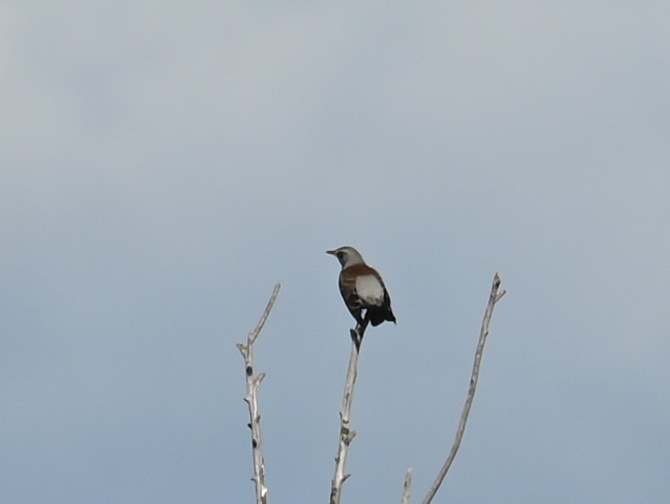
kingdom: Animalia
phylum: Chordata
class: Aves
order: Passeriformes
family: Turdidae
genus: Turdus
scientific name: Turdus pilaris
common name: Fieldfare
